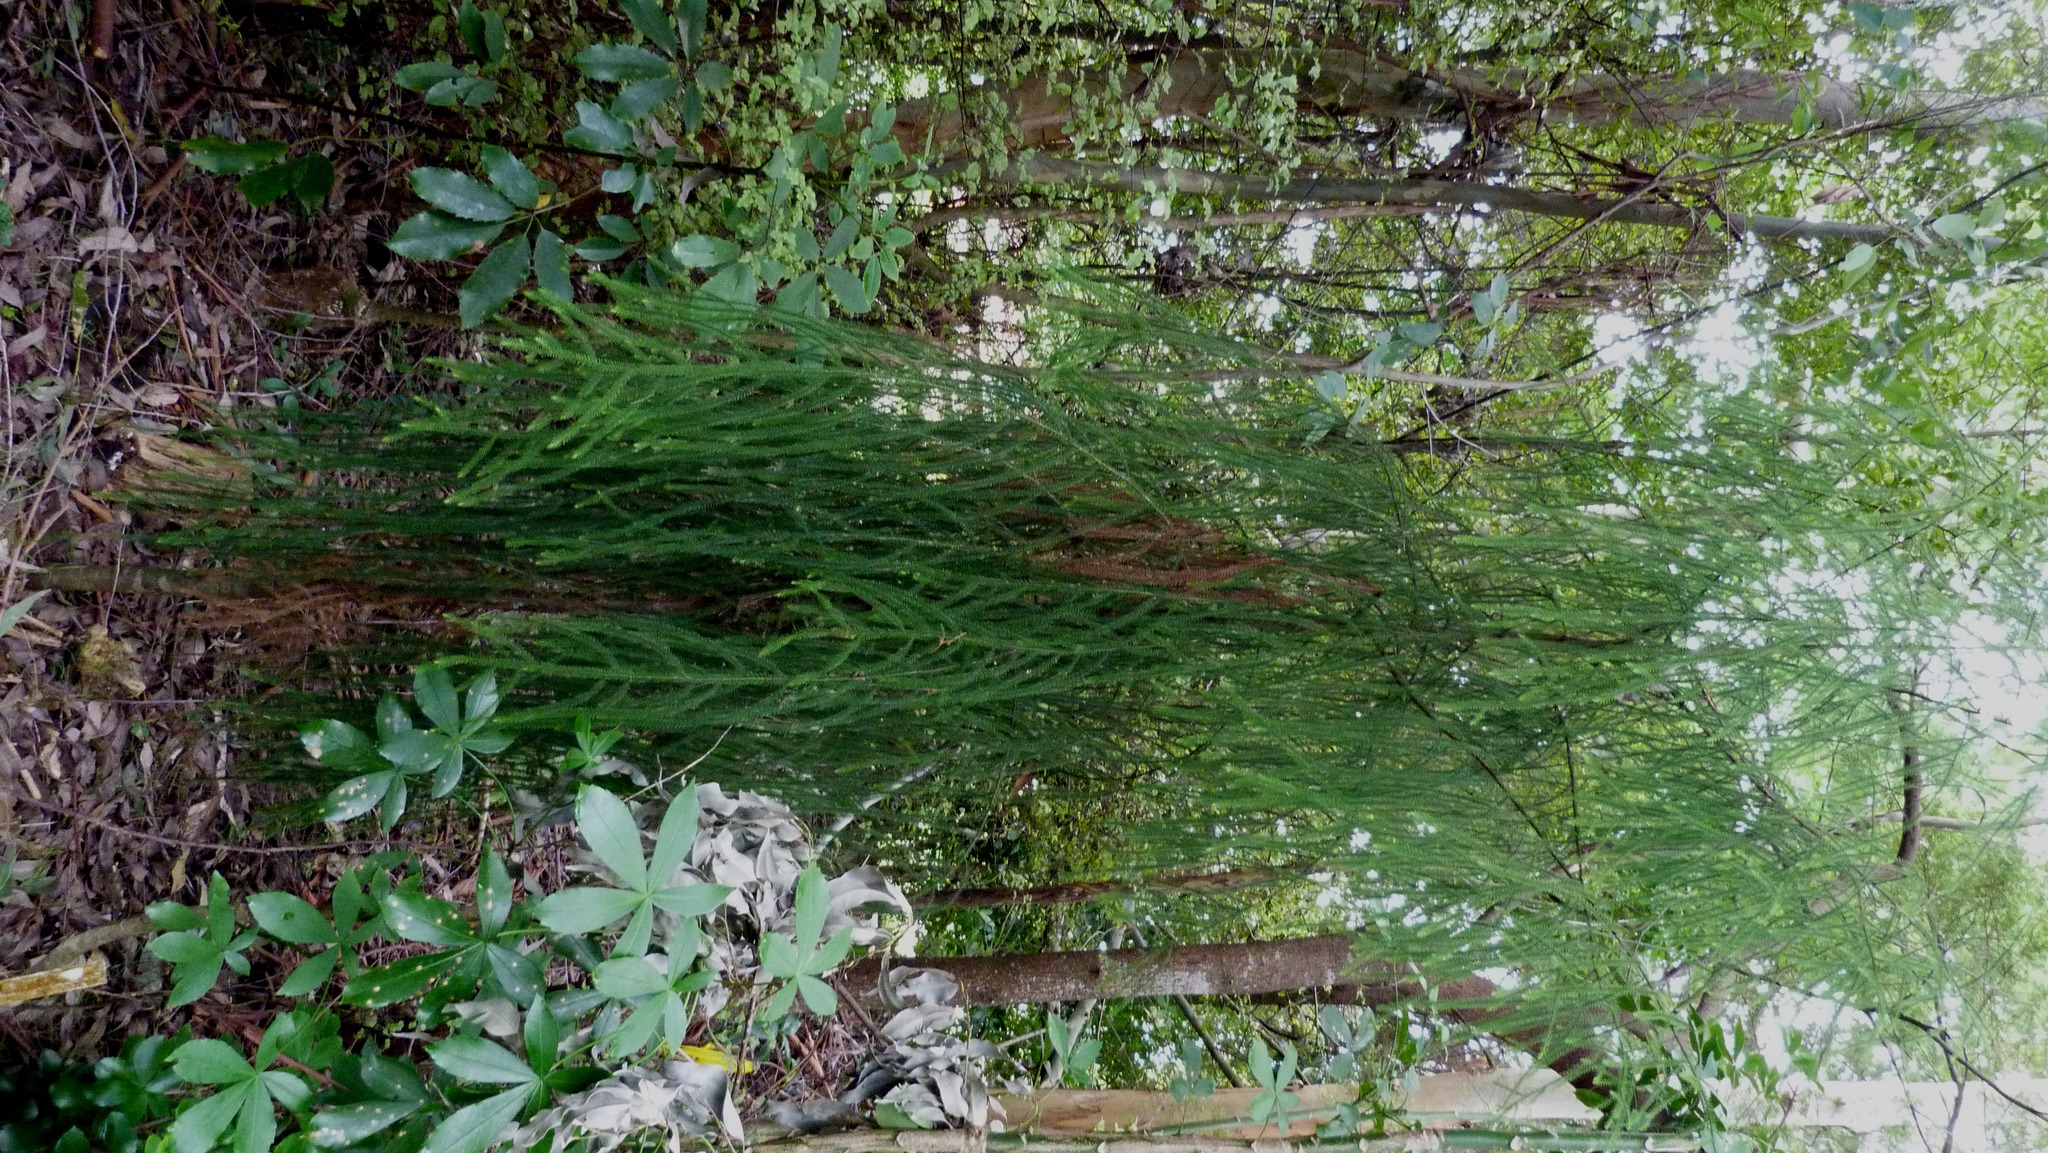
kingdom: Plantae
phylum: Tracheophyta
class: Pinopsida
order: Pinales
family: Podocarpaceae
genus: Dacrydium
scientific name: Dacrydium cupressinum
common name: Red pine
